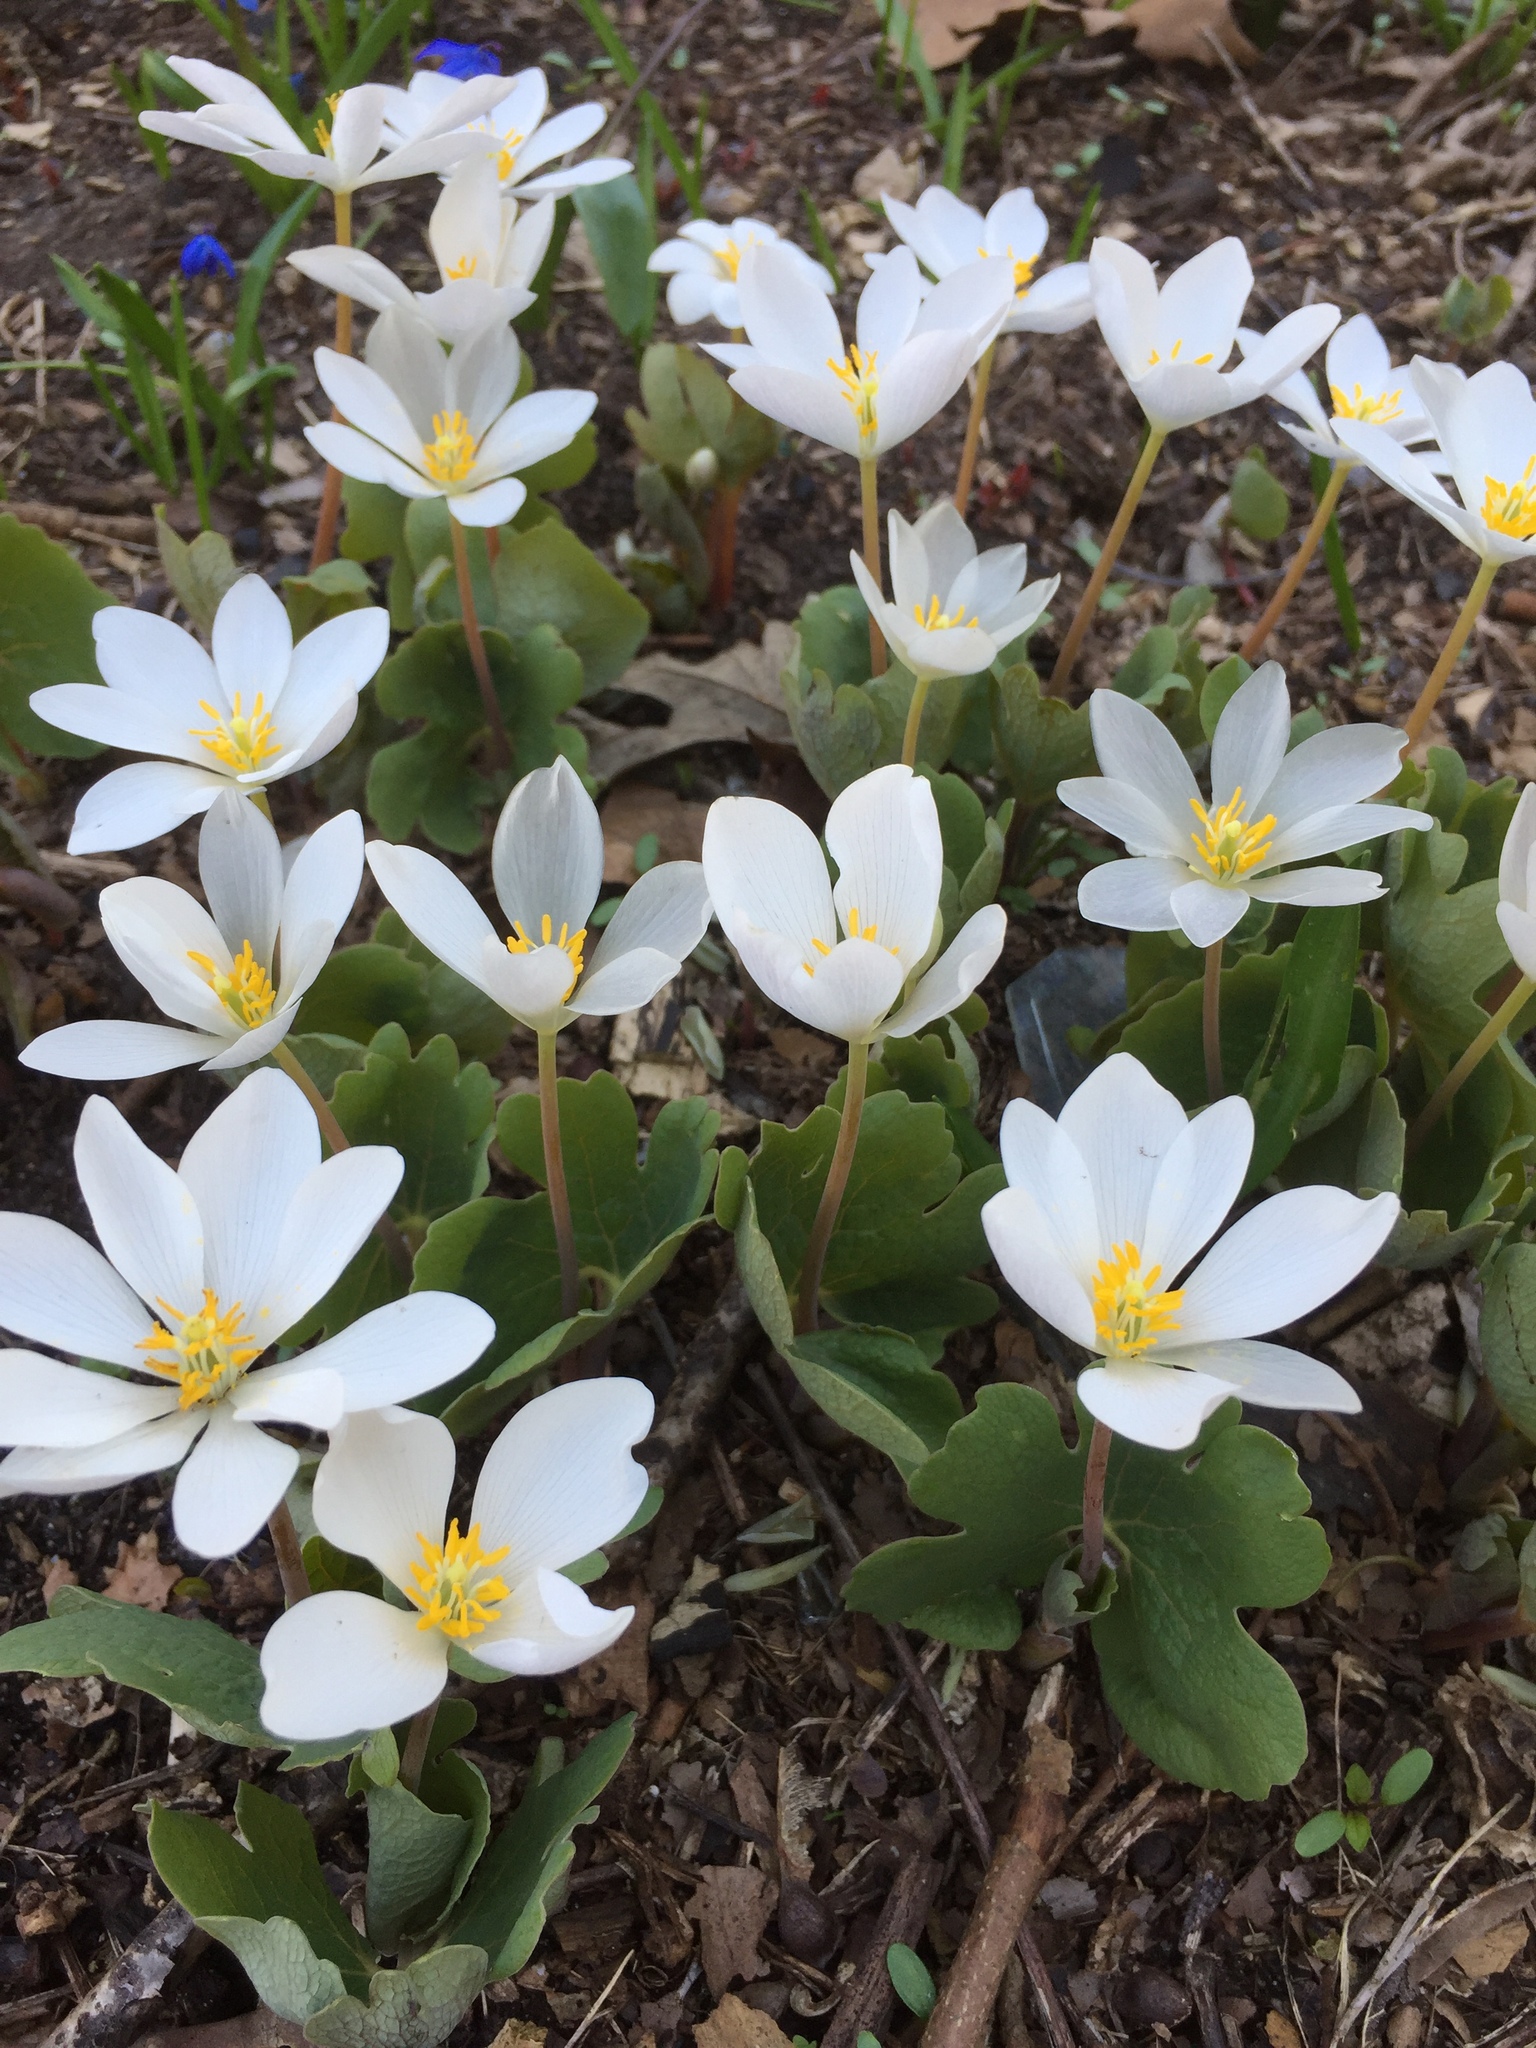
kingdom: Plantae
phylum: Tracheophyta
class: Magnoliopsida
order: Ranunculales
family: Papaveraceae
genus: Sanguinaria
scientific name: Sanguinaria canadensis
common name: Bloodroot
